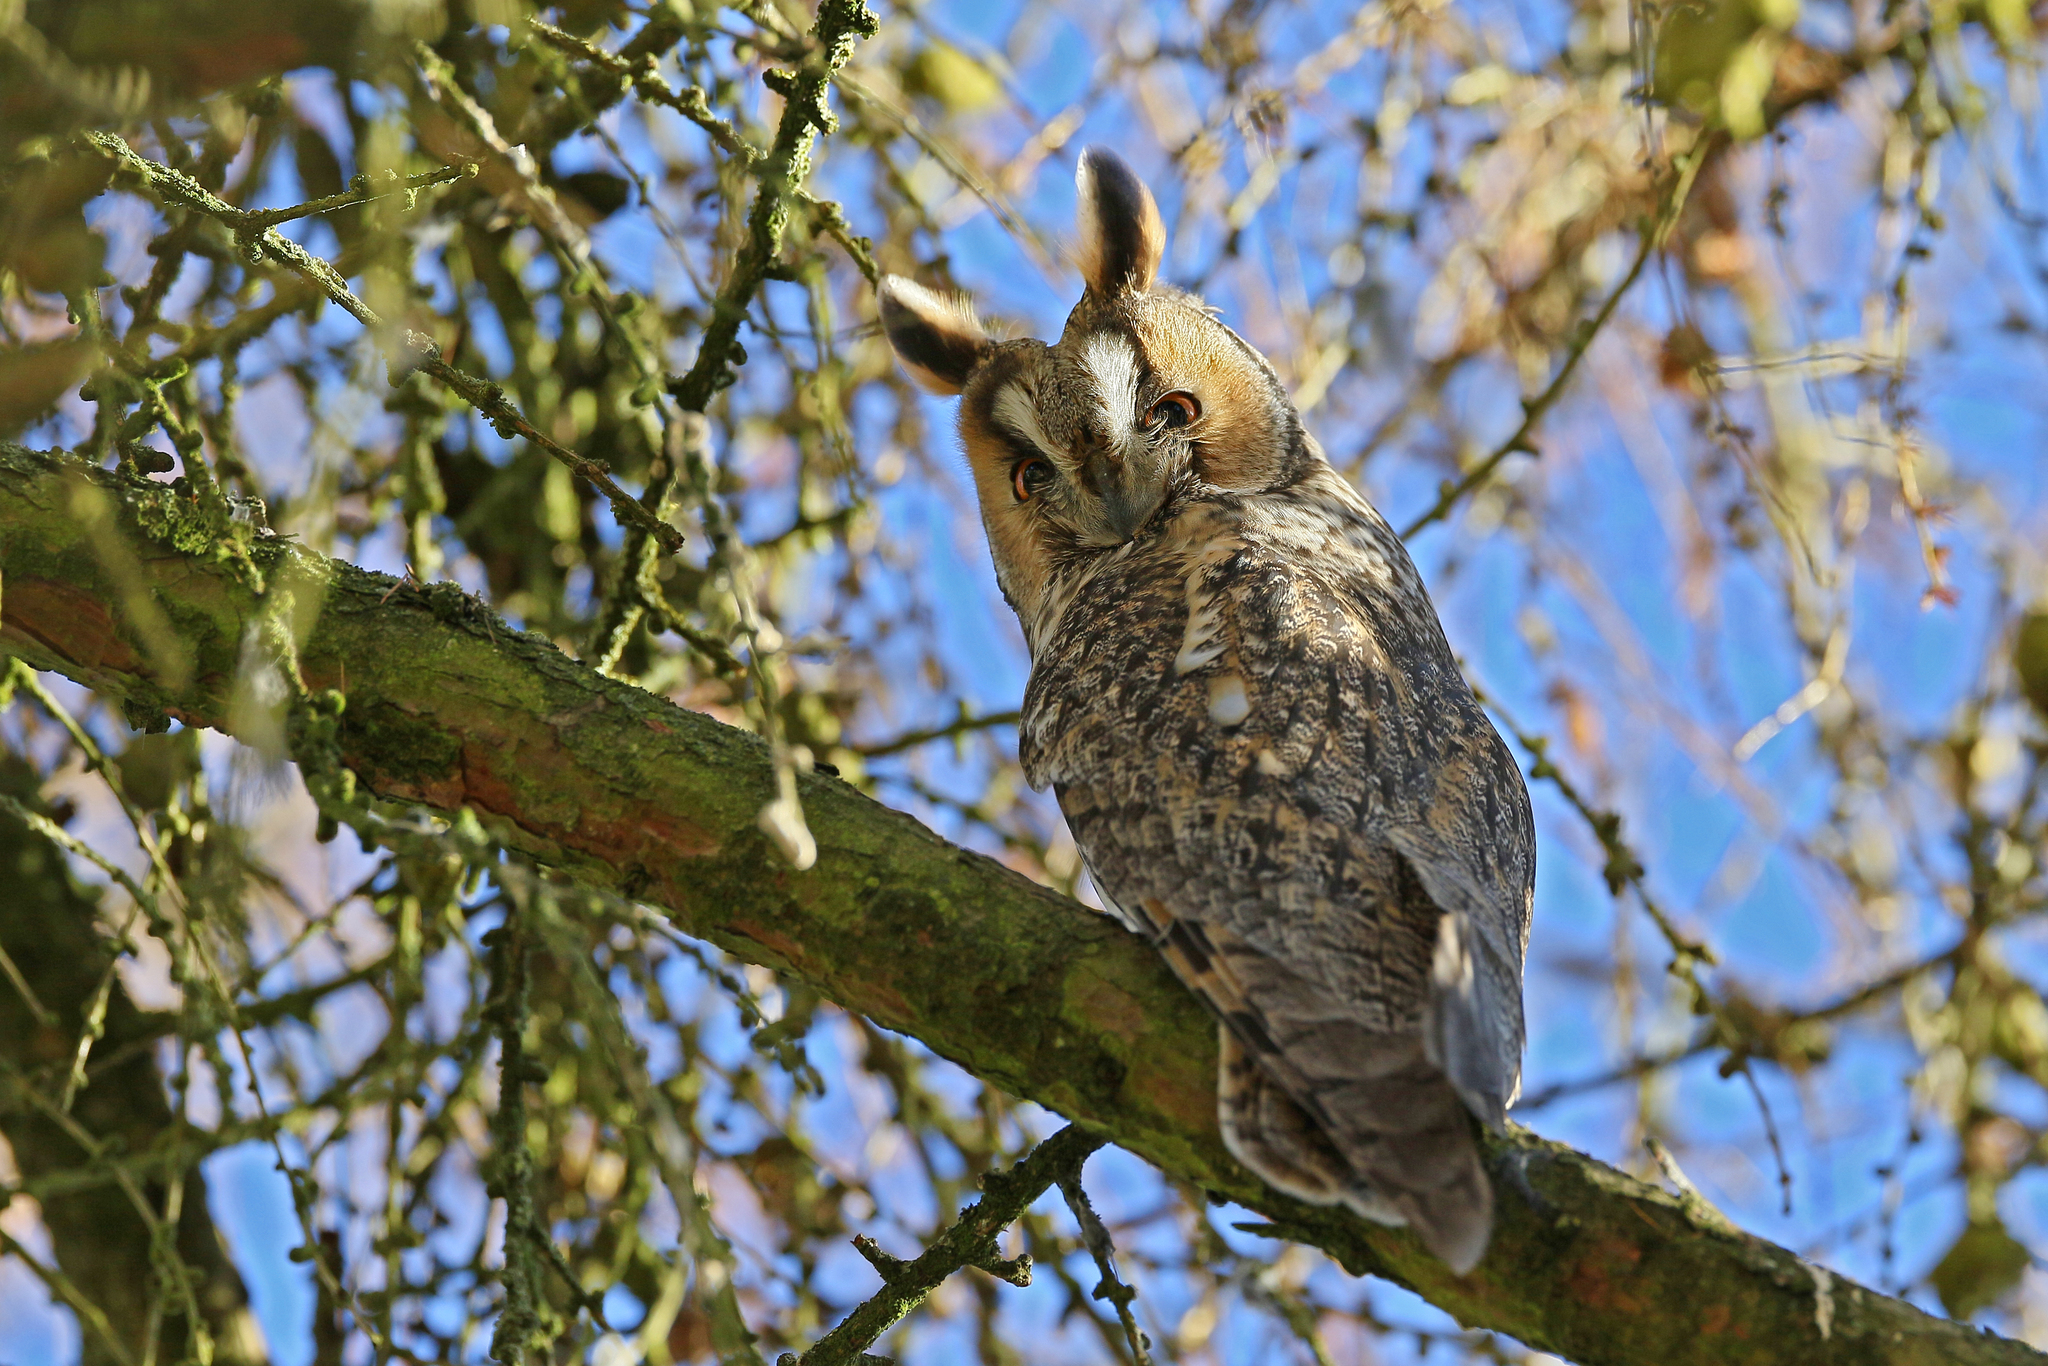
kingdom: Animalia
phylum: Chordata
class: Aves
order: Strigiformes
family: Strigidae
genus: Asio
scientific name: Asio otus
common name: Long-eared owl
